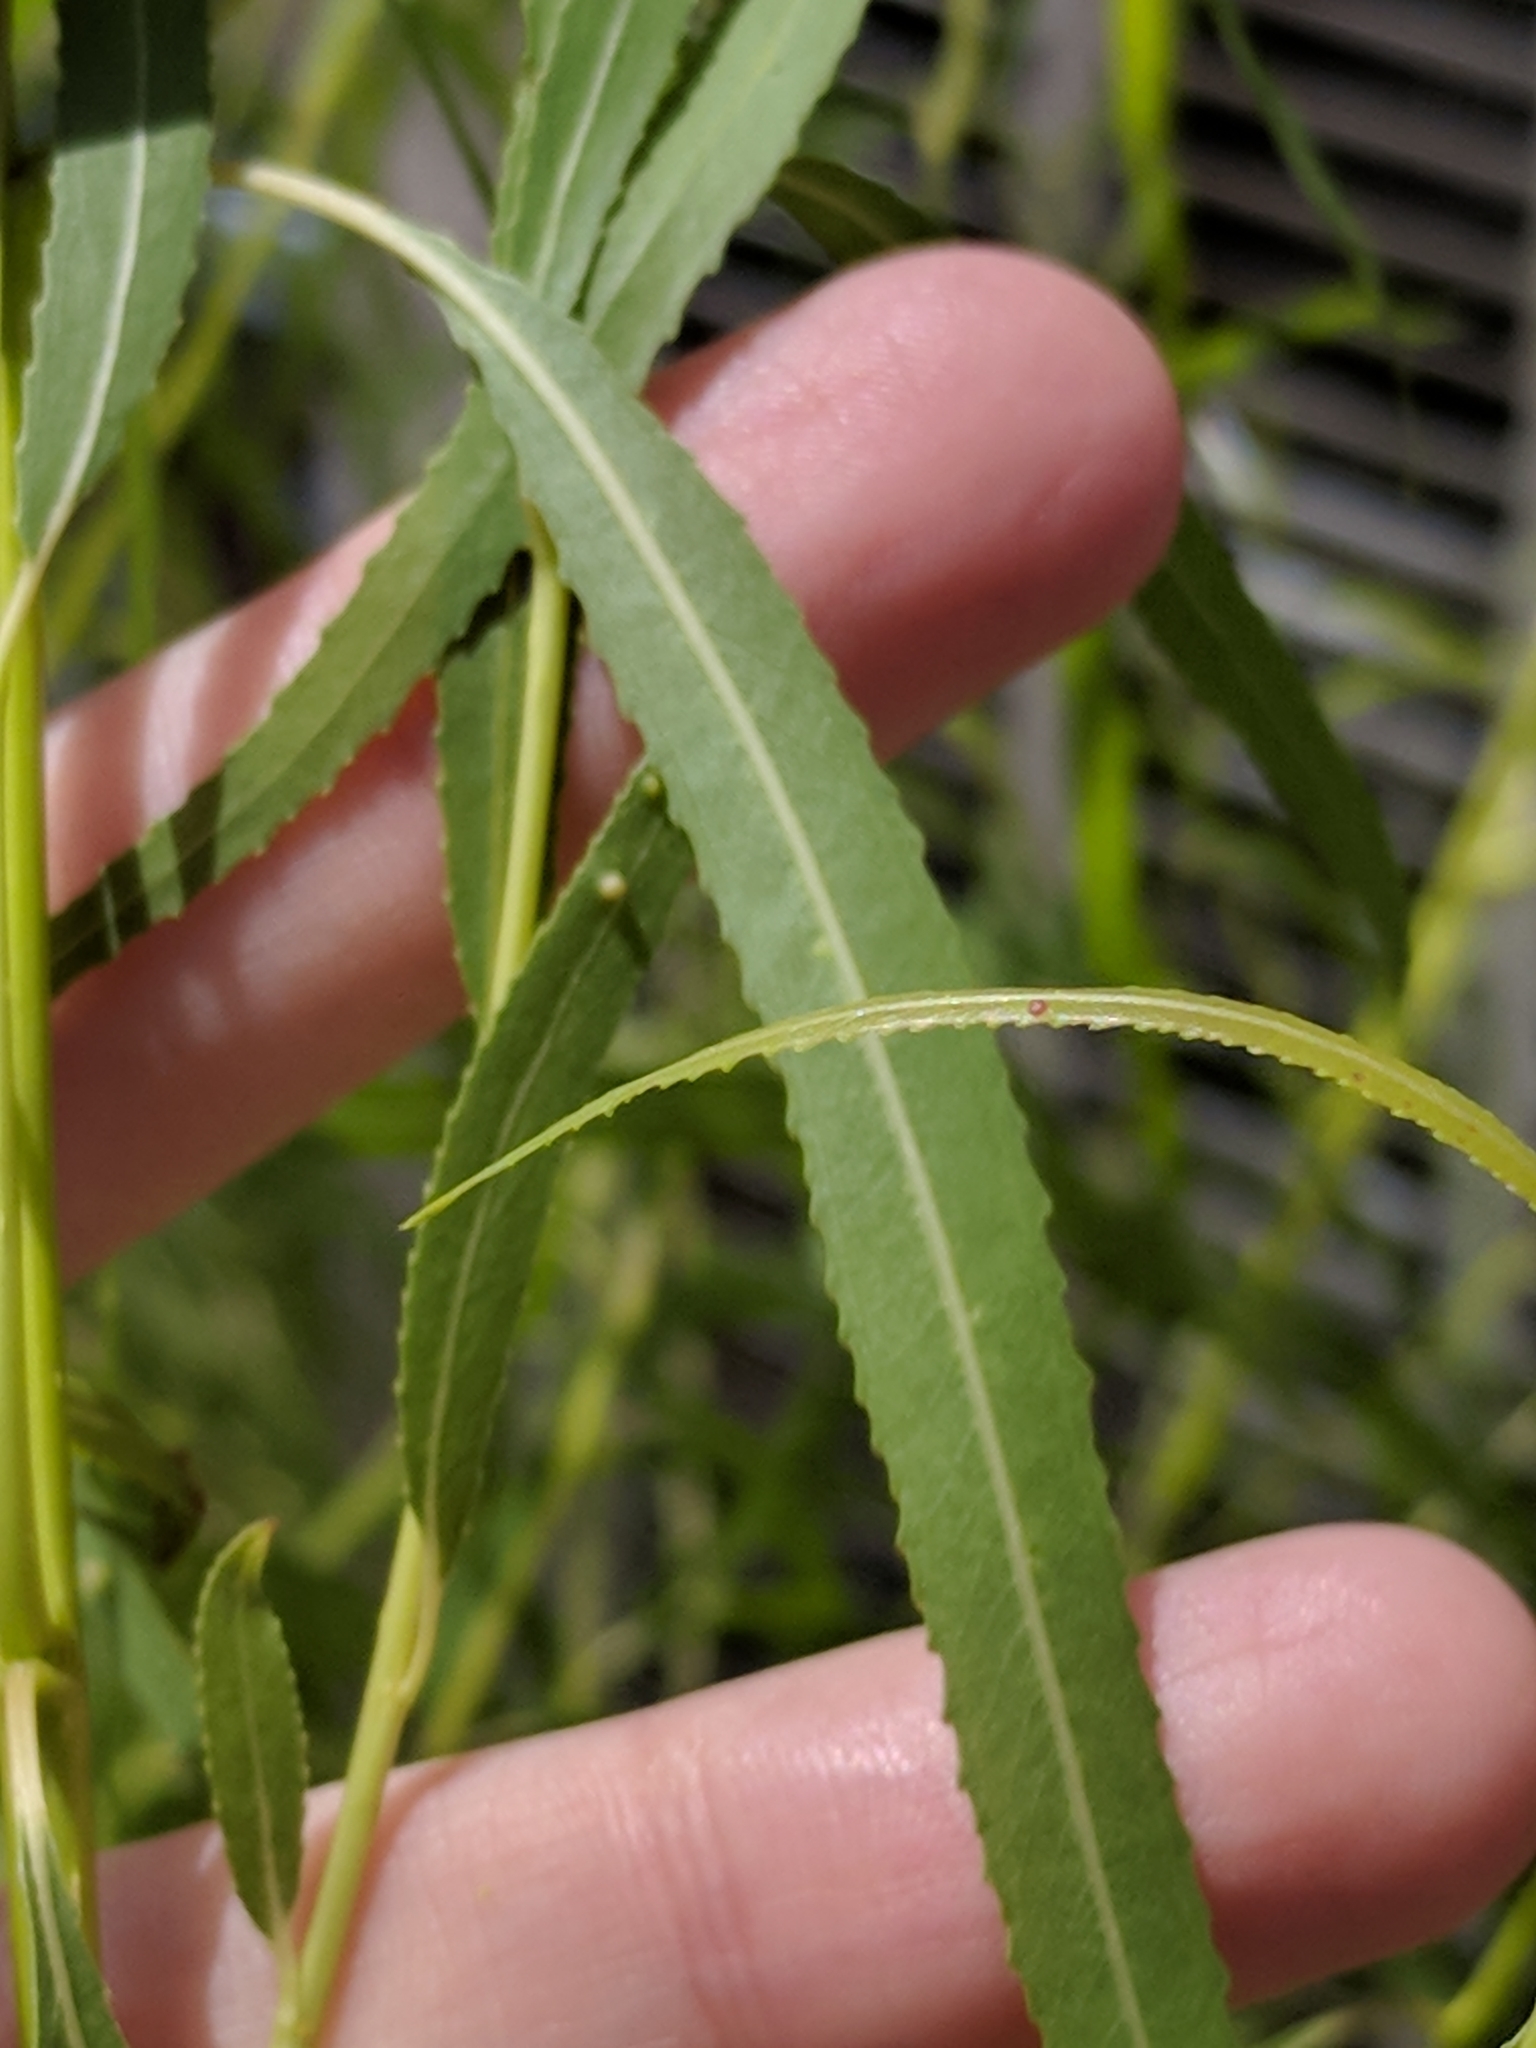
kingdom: Plantae
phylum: Tracheophyta
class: Magnoliopsida
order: Malpighiales
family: Salicaceae
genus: Salix
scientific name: Salix nigra
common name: Black willow
